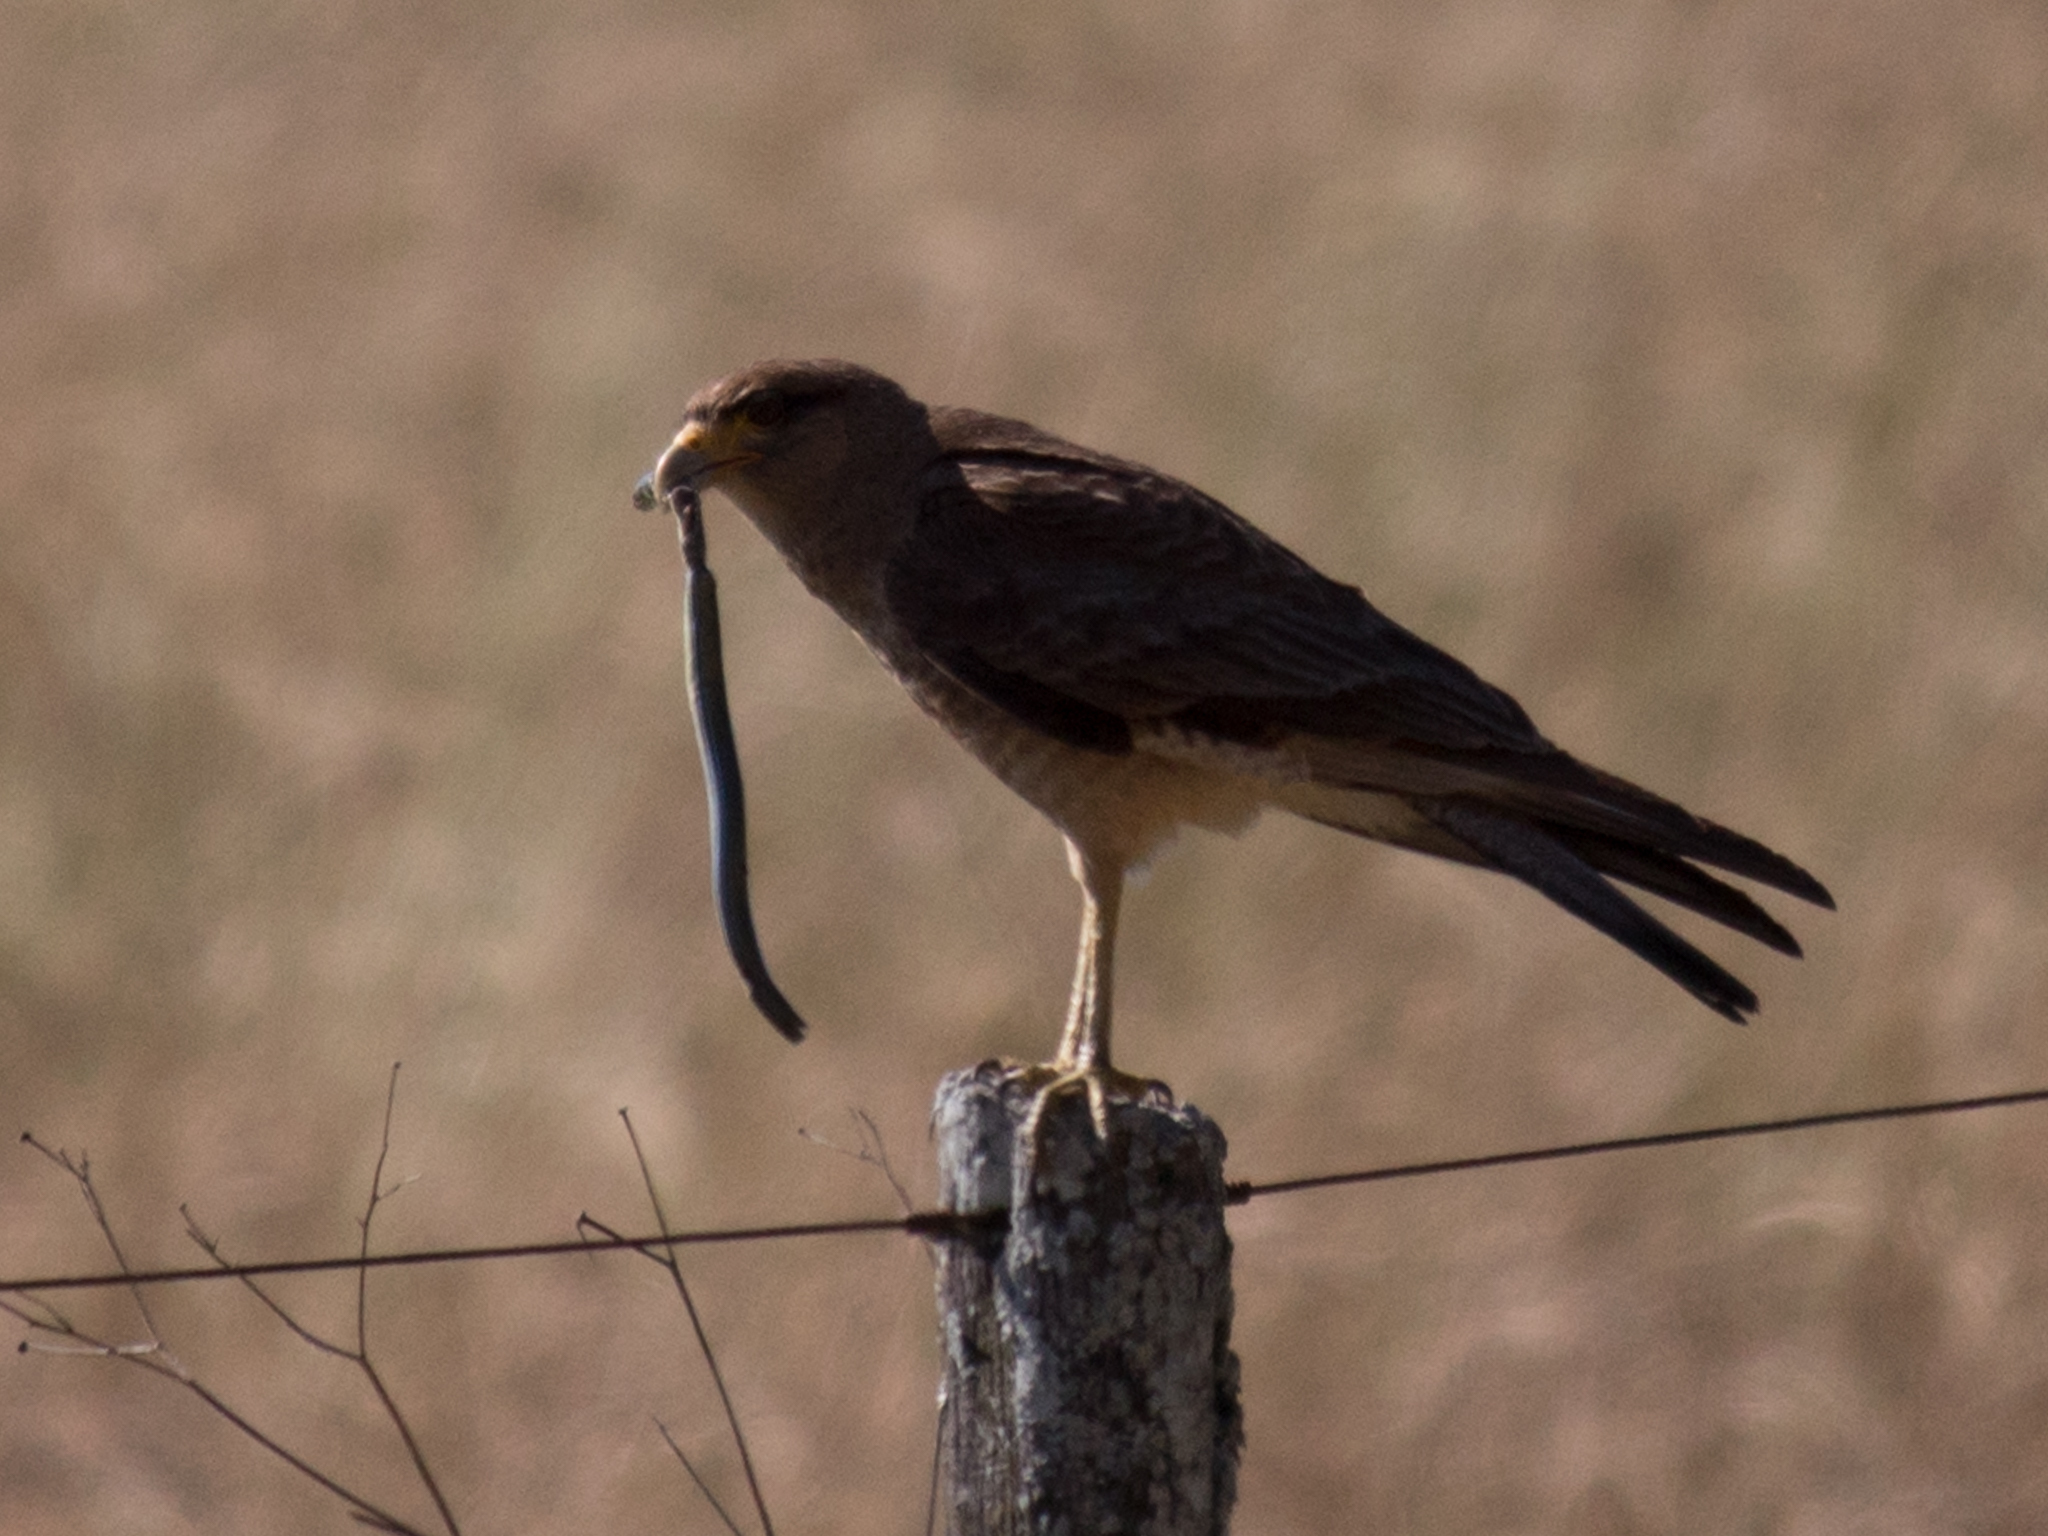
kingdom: Animalia
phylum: Chordata
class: Aves
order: Falconiformes
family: Falconidae
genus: Daptrius
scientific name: Daptrius
